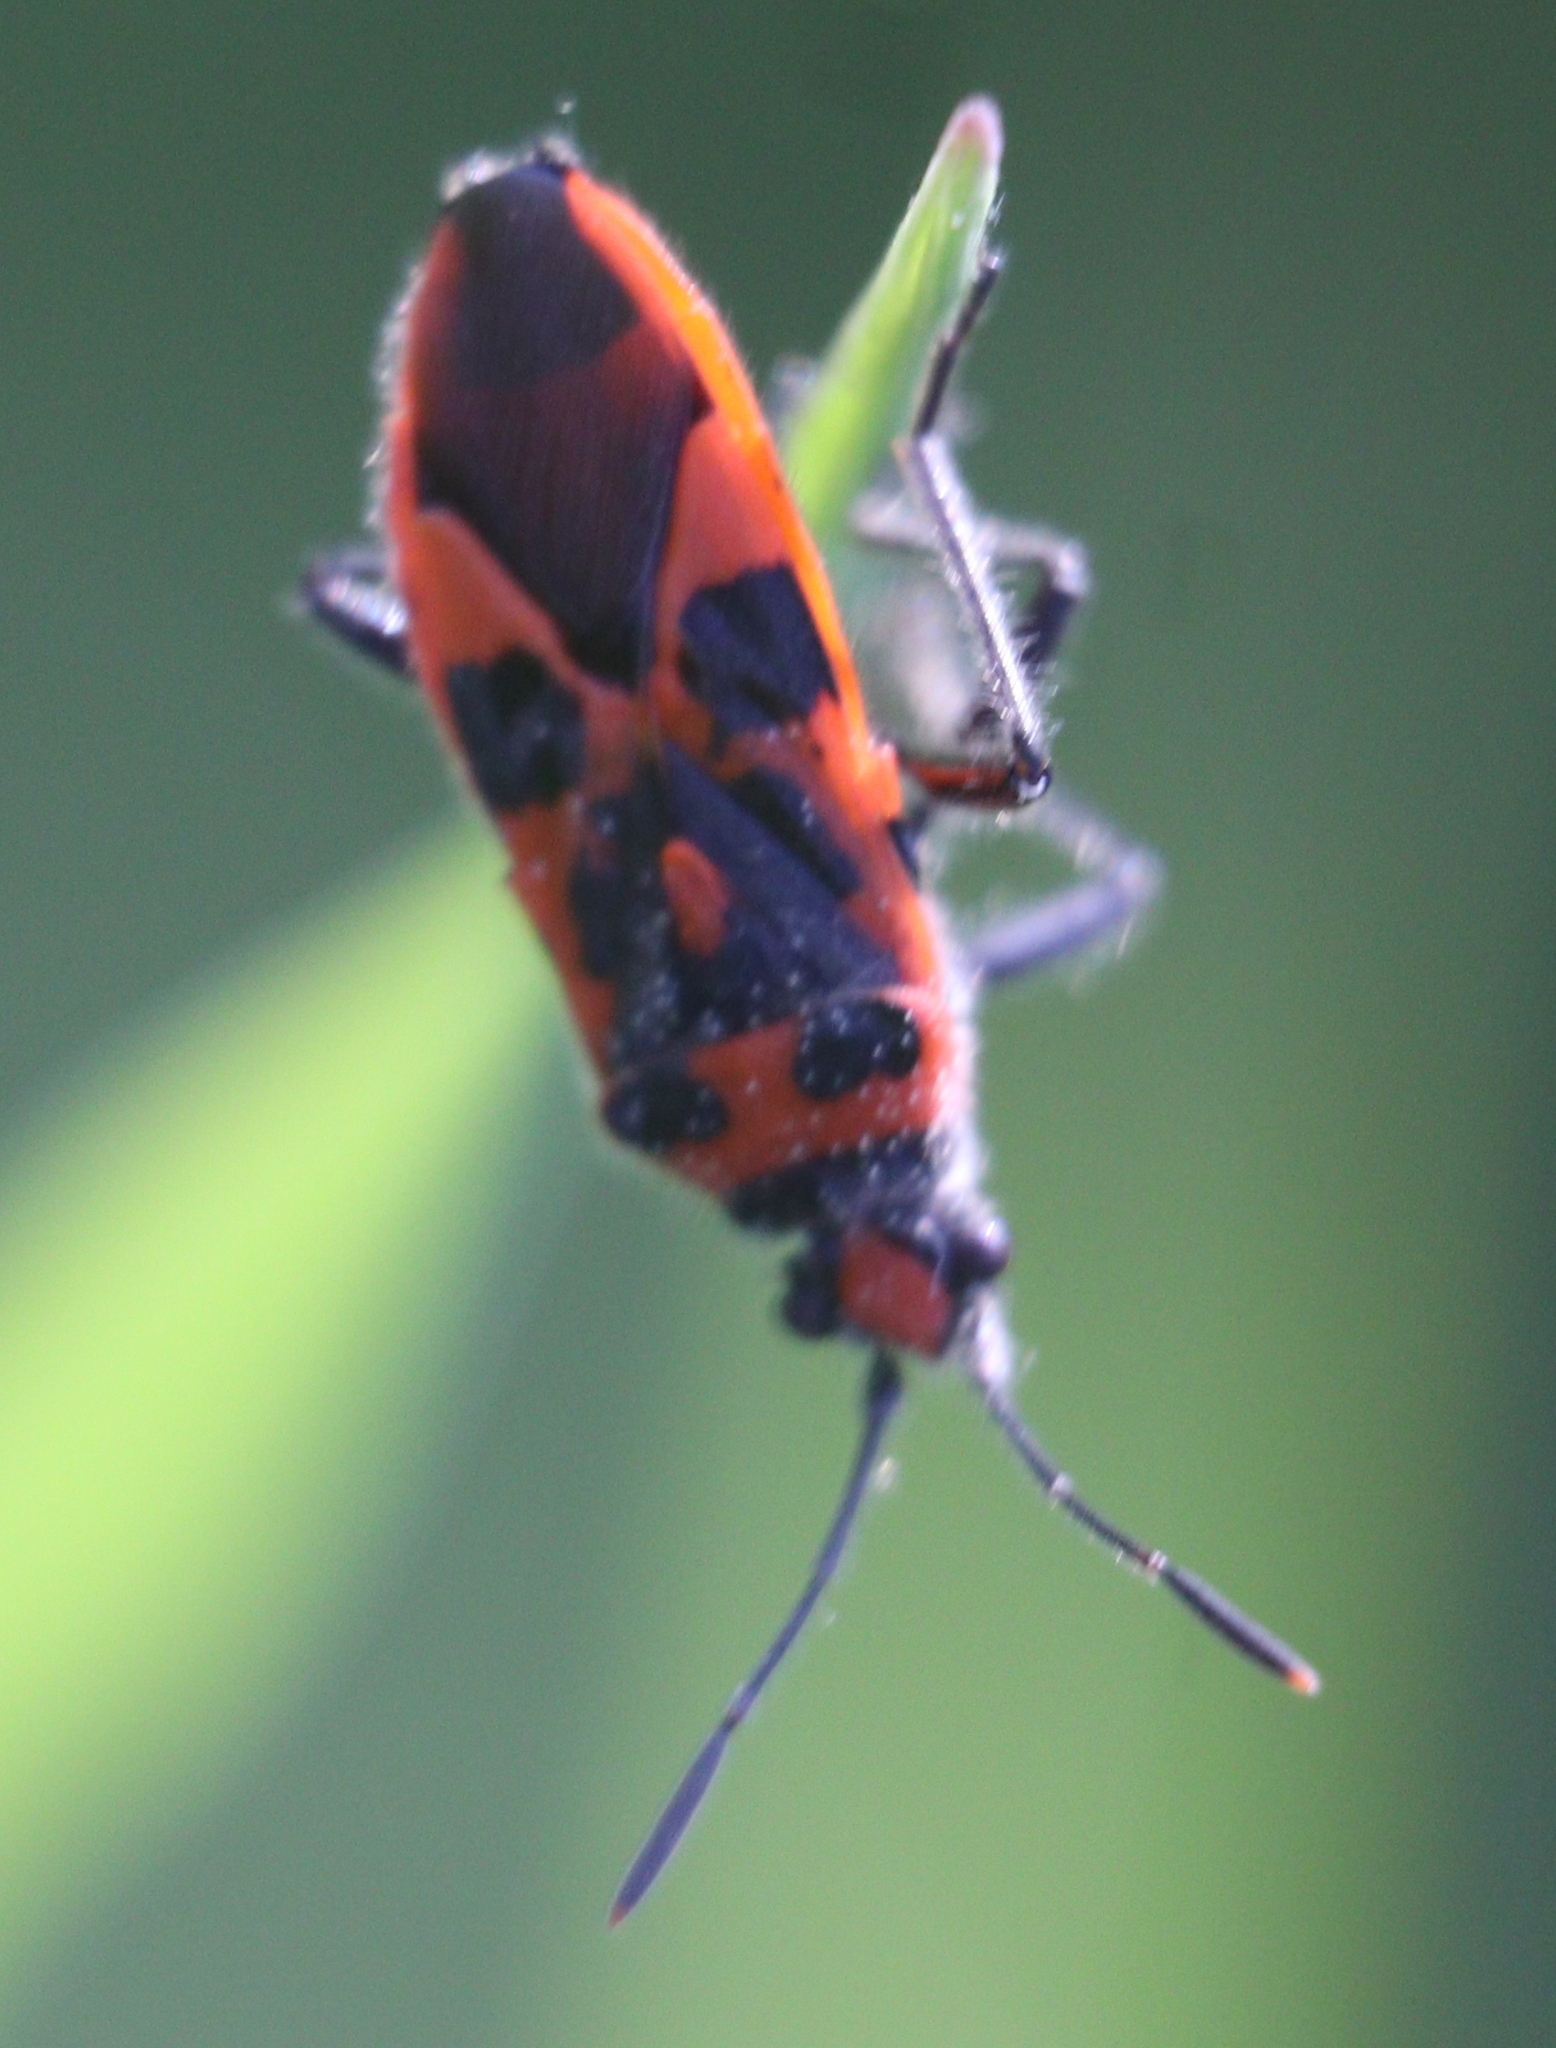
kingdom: Animalia
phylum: Arthropoda
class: Insecta
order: Hemiptera
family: Rhopalidae
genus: Corizus
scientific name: Corizus hyoscyami
